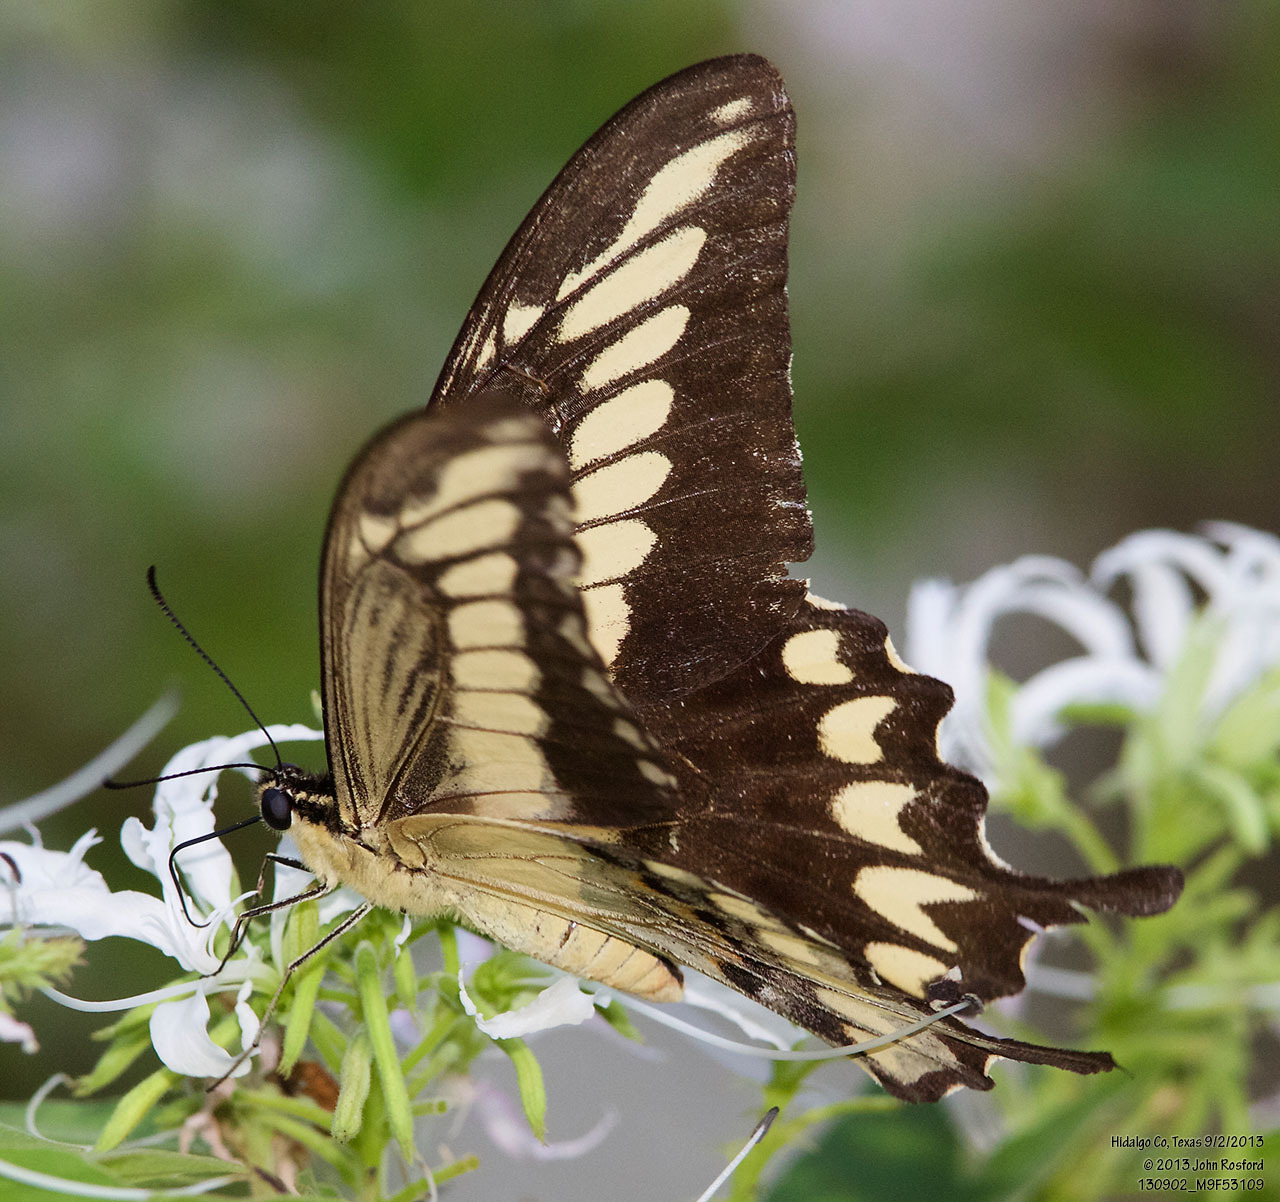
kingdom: Animalia
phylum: Arthropoda
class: Insecta
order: Lepidoptera
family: Papilionidae
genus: Papilio
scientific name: Papilio ornythion
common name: Ornythion swallowtail
